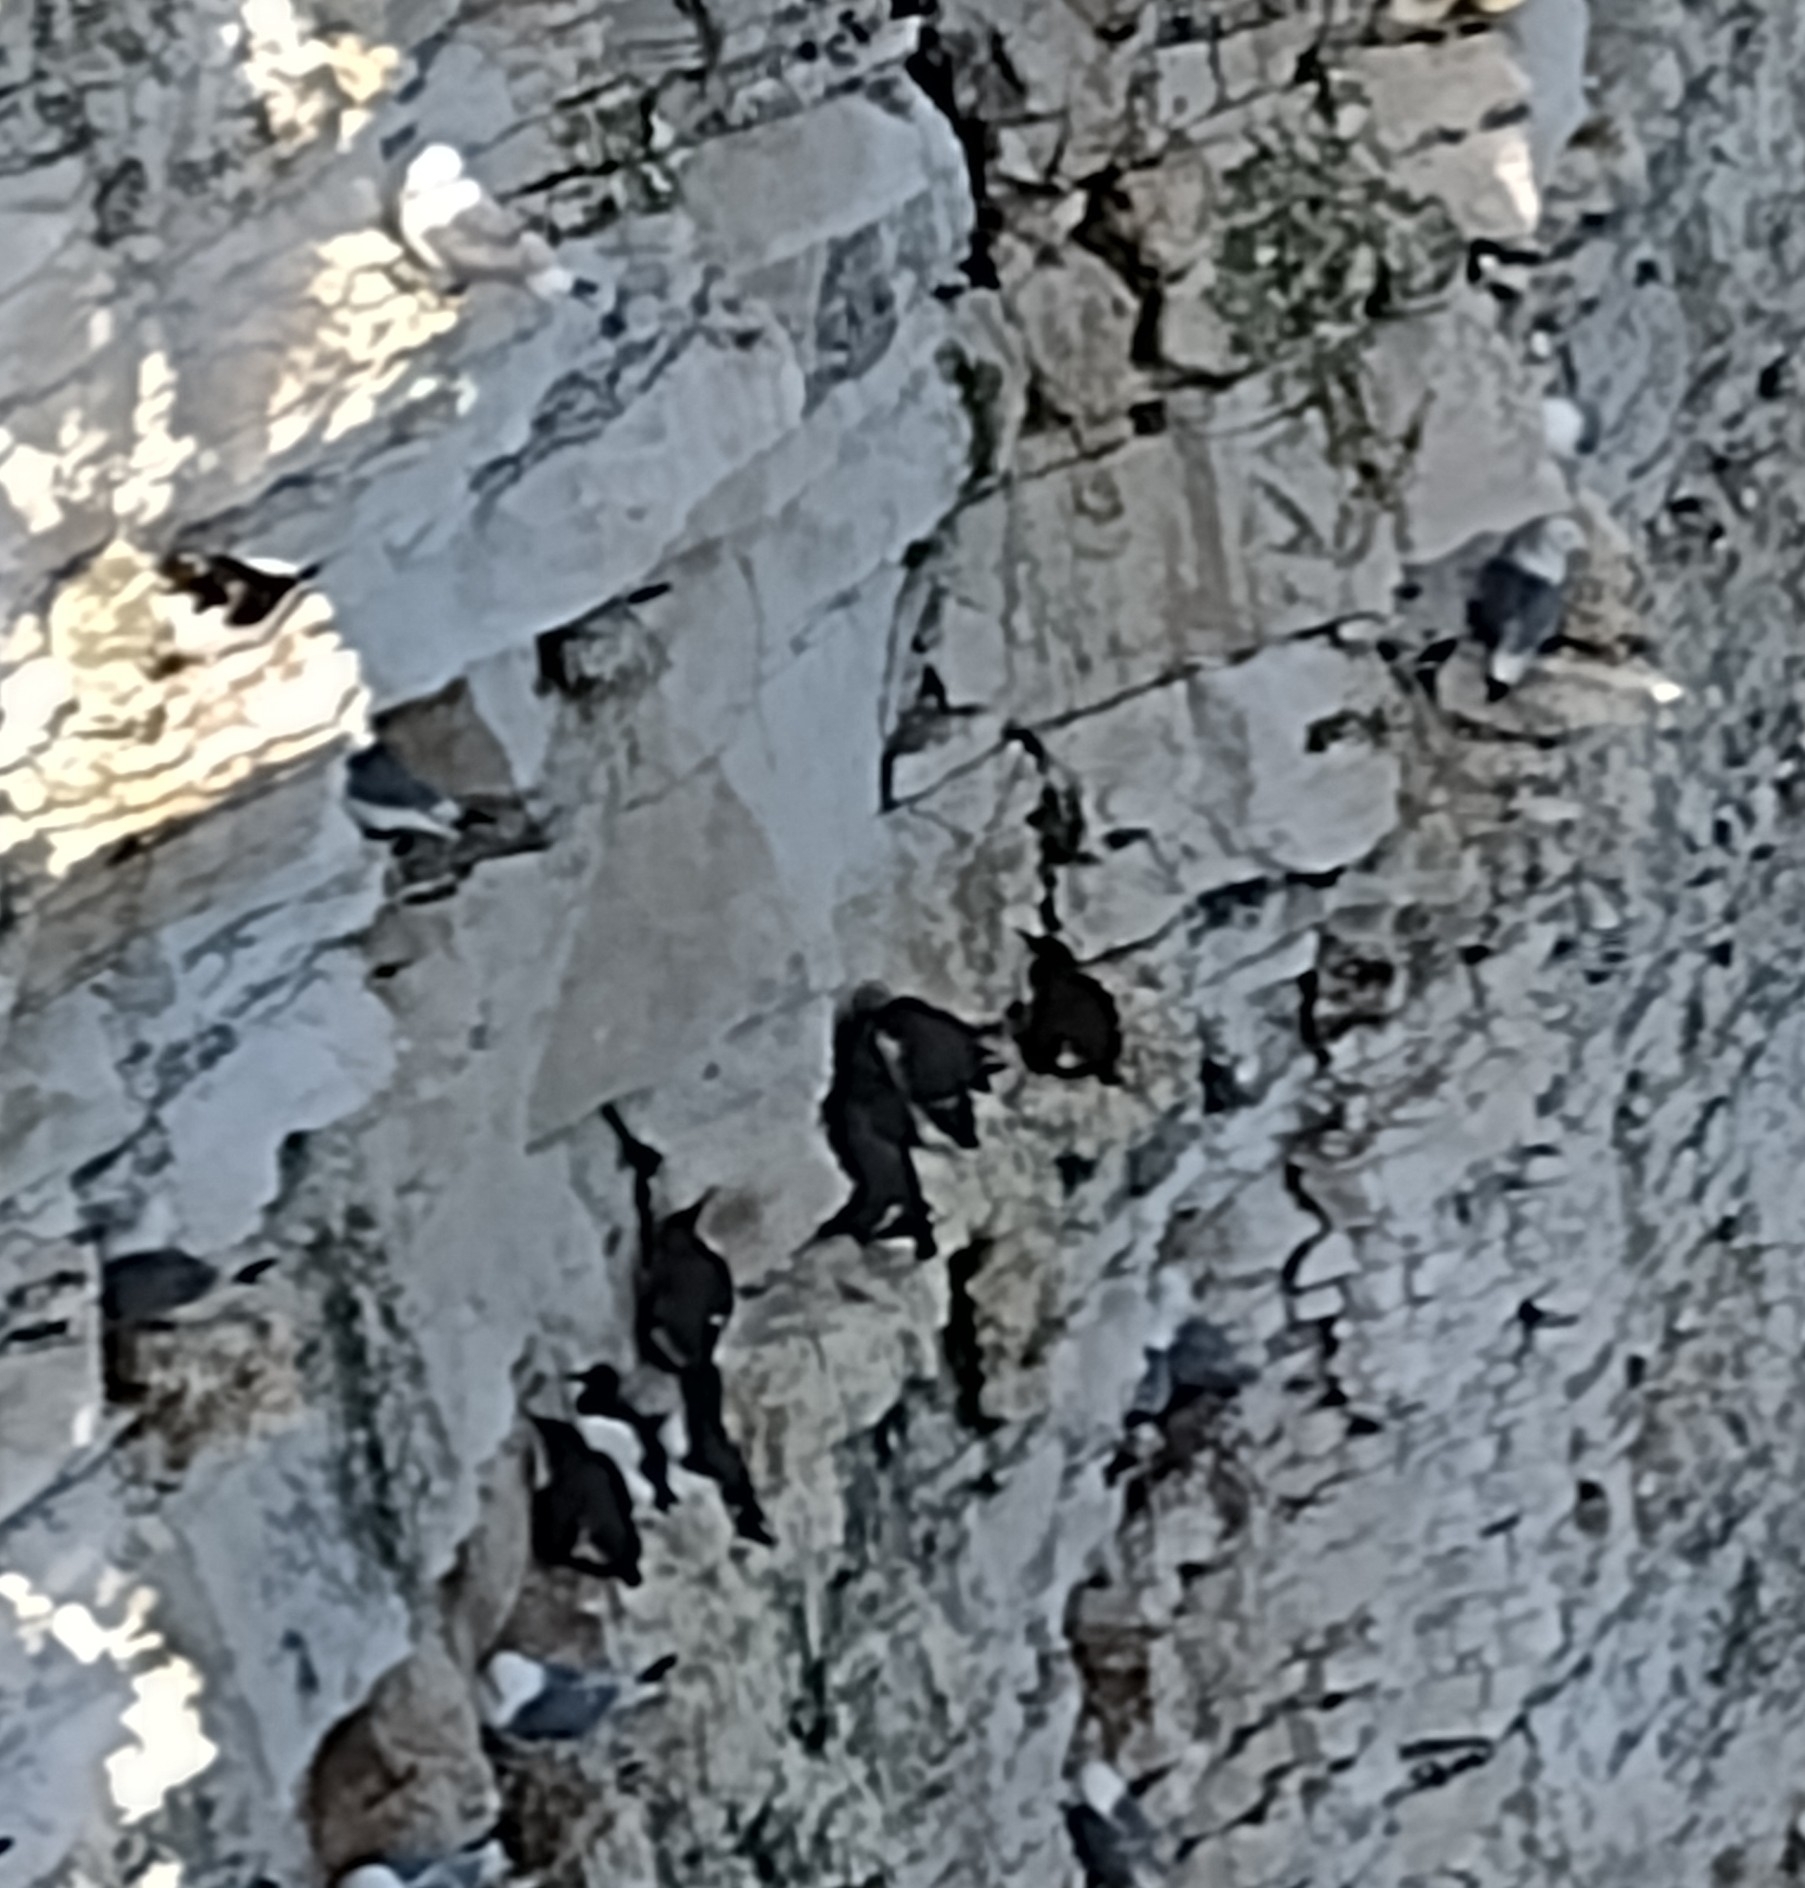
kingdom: Animalia
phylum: Chordata
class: Aves
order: Charadriiformes
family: Alcidae
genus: Uria
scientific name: Uria aalge
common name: Common murre
